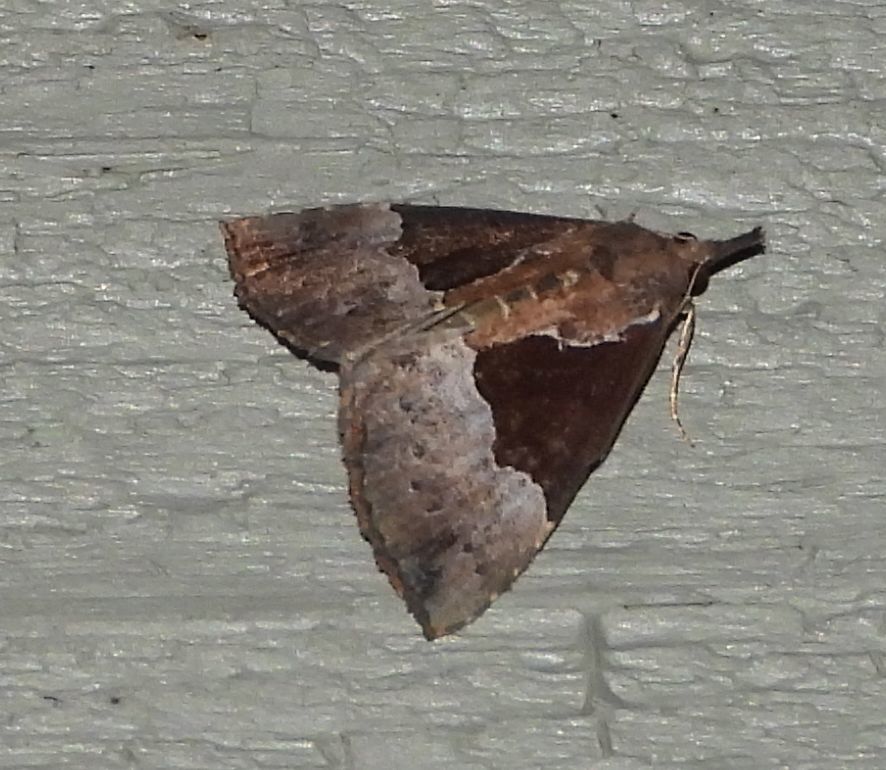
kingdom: Animalia
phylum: Arthropoda
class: Insecta
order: Lepidoptera
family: Erebidae
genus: Hypena
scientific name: Hypena bijugalis
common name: Dimorphic bomolocha moth
